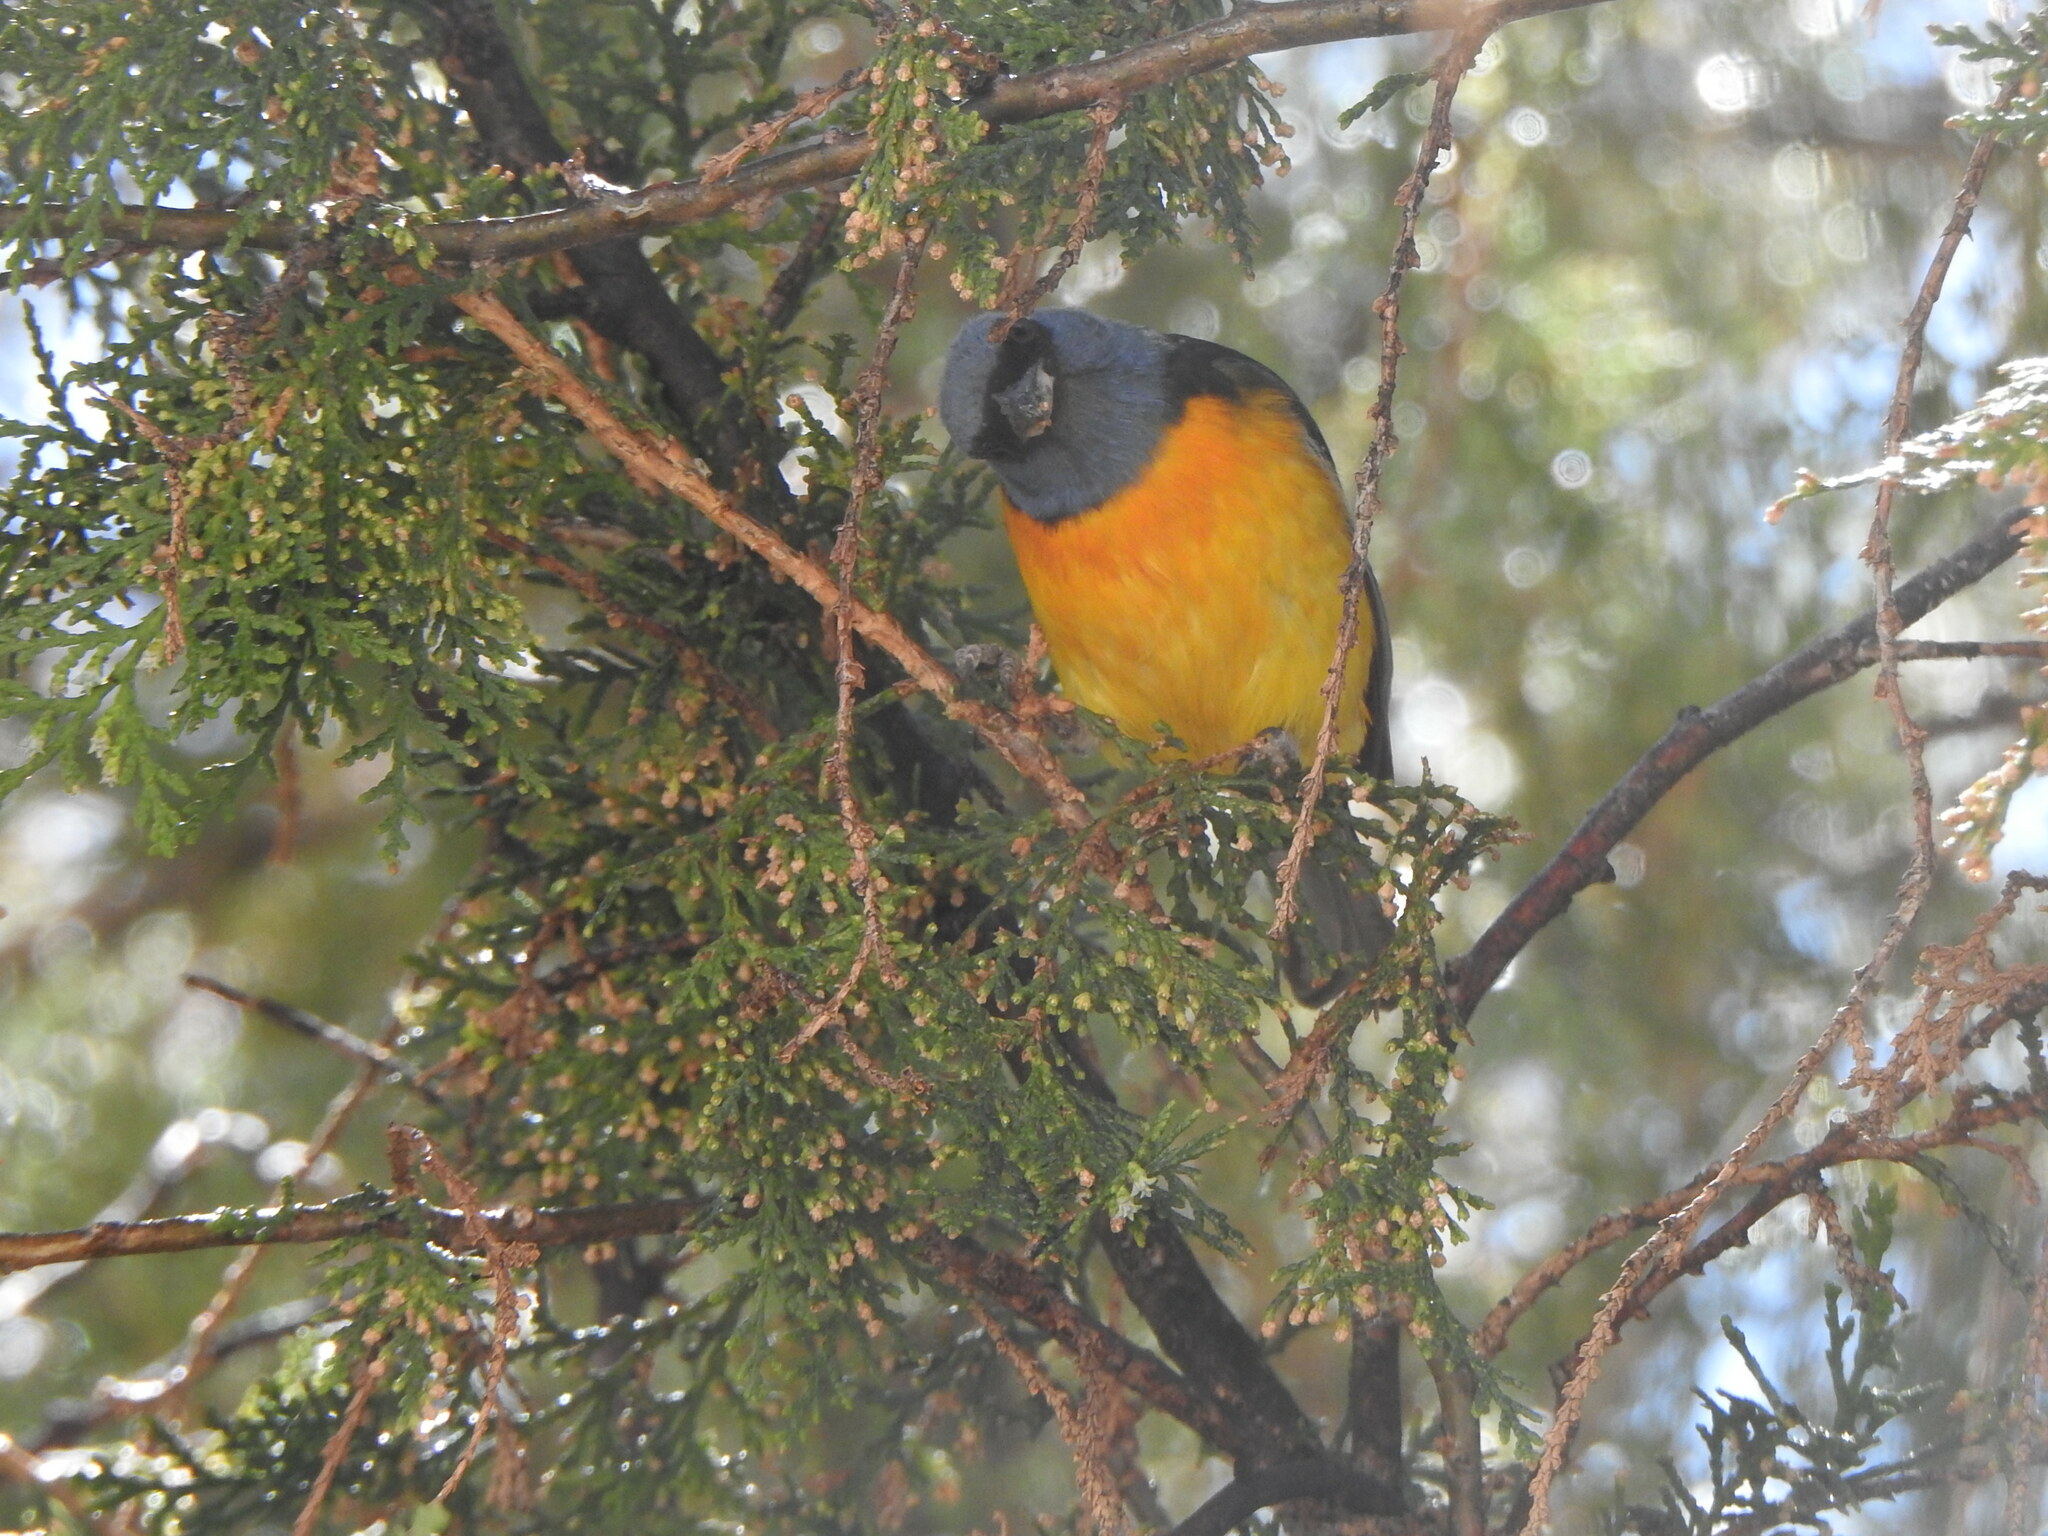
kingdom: Animalia
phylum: Chordata
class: Aves
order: Passeriformes
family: Thraupidae
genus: Rauenia
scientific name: Rauenia bonariensis
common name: Blue-and-yellow tanager
